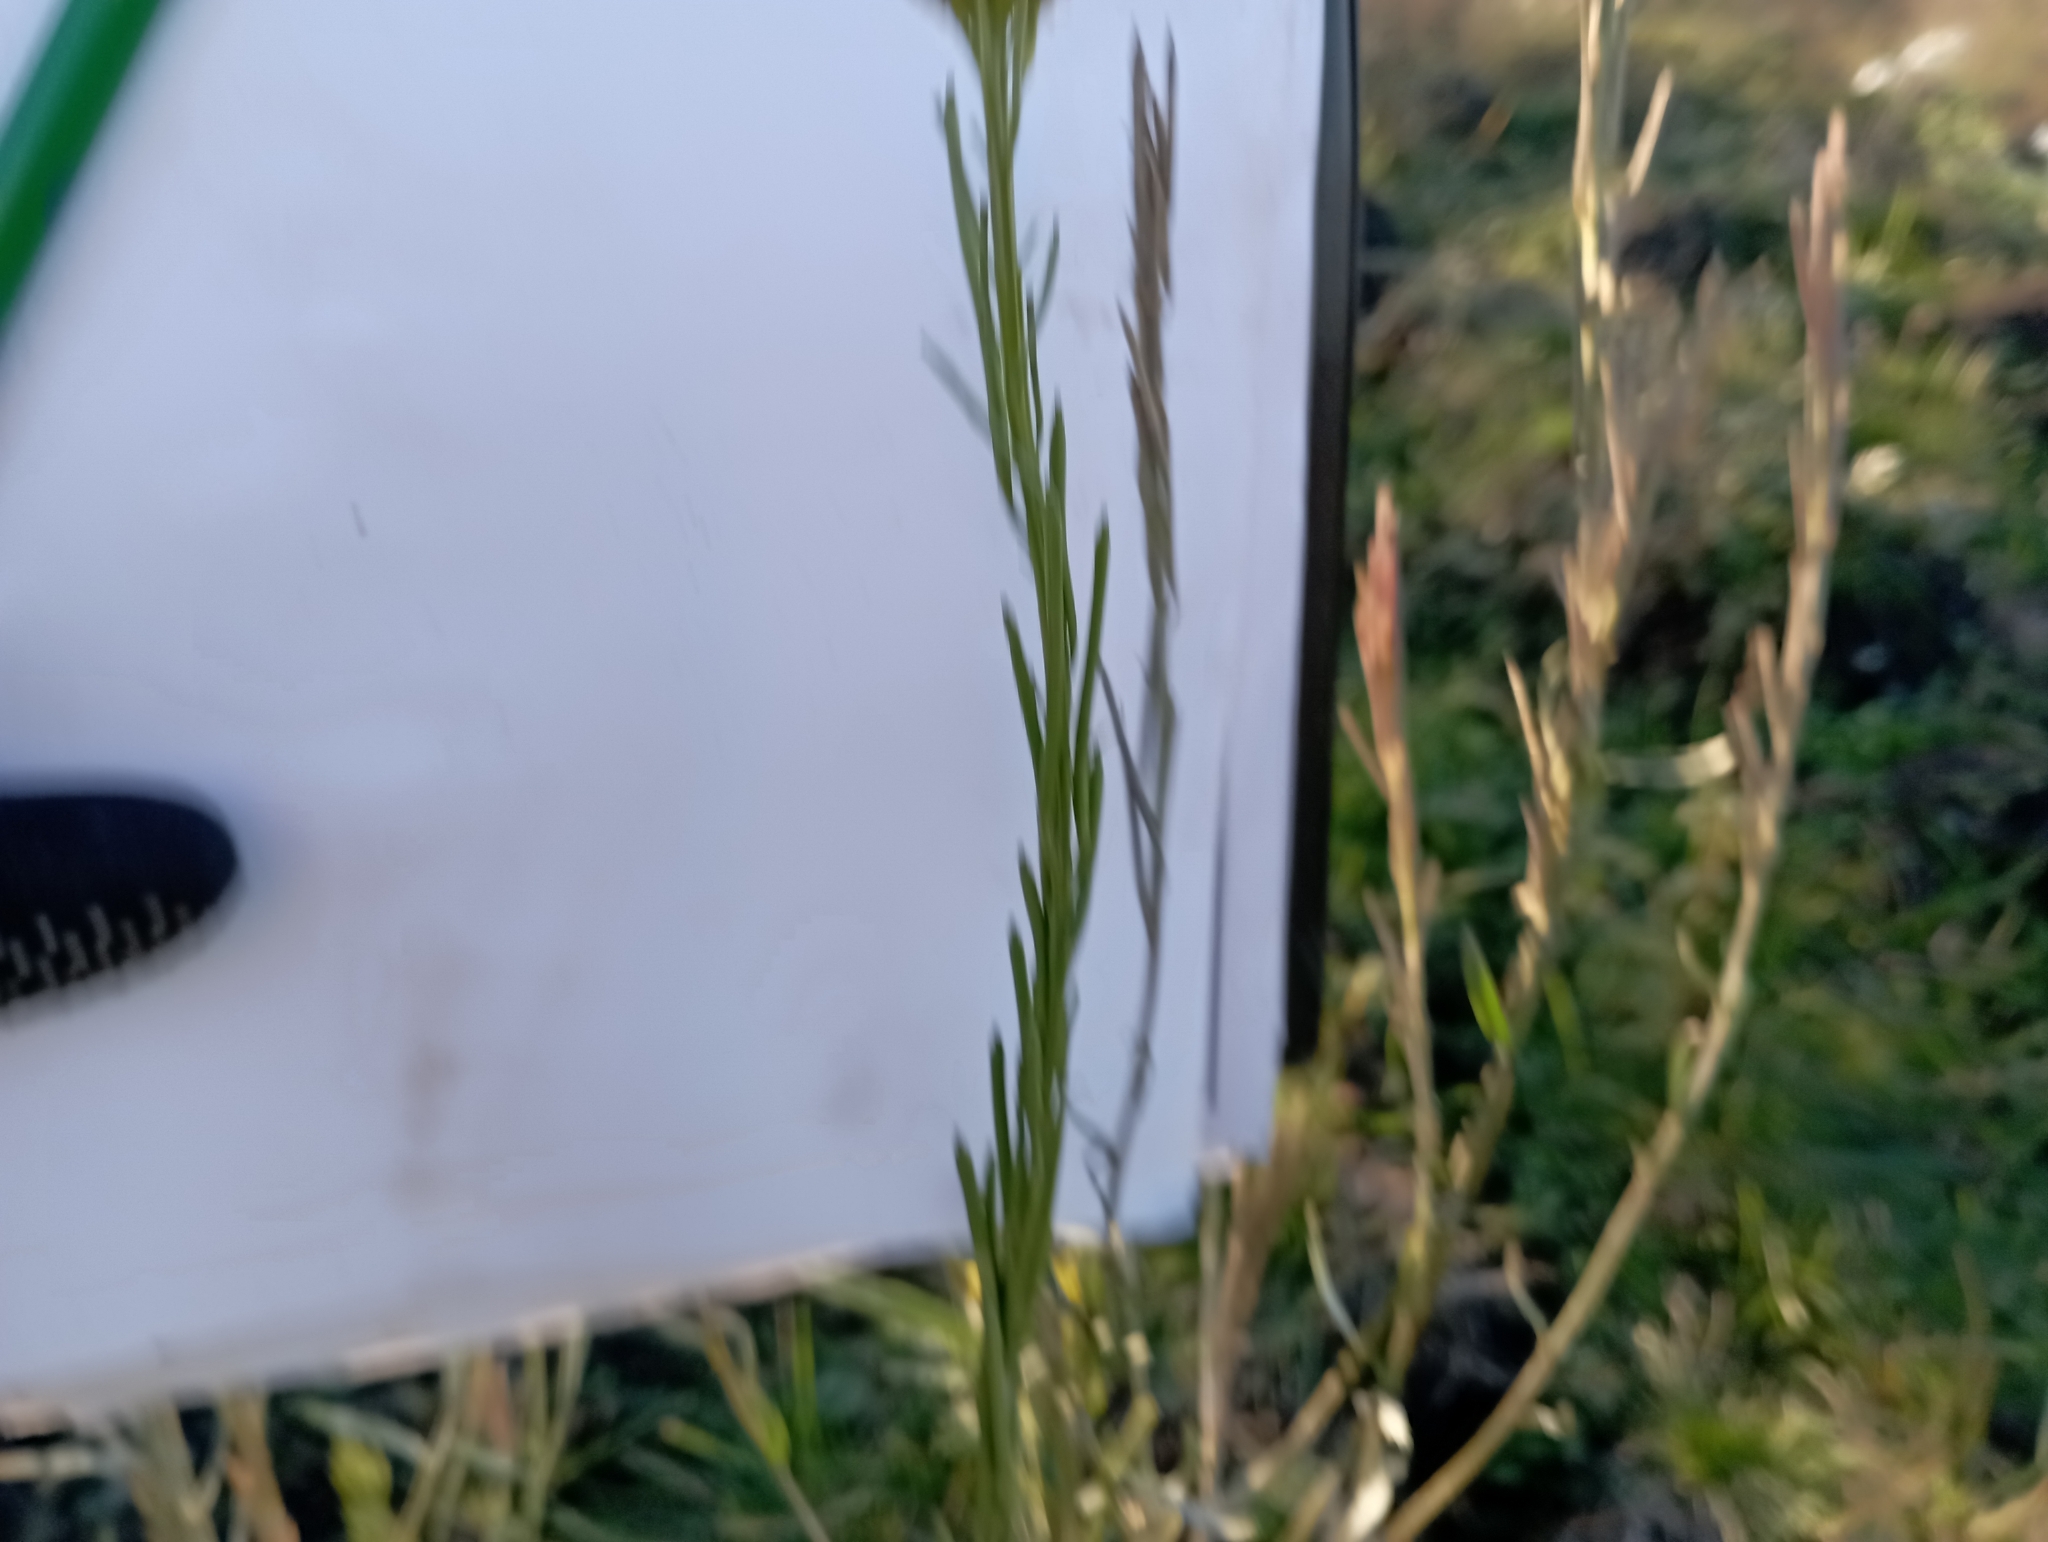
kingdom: Plantae
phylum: Tracheophyta
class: Magnoliopsida
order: Brassicales
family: Brassicaceae
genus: Erysimum
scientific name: Erysimum hieraciifolium
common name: European wallflower
